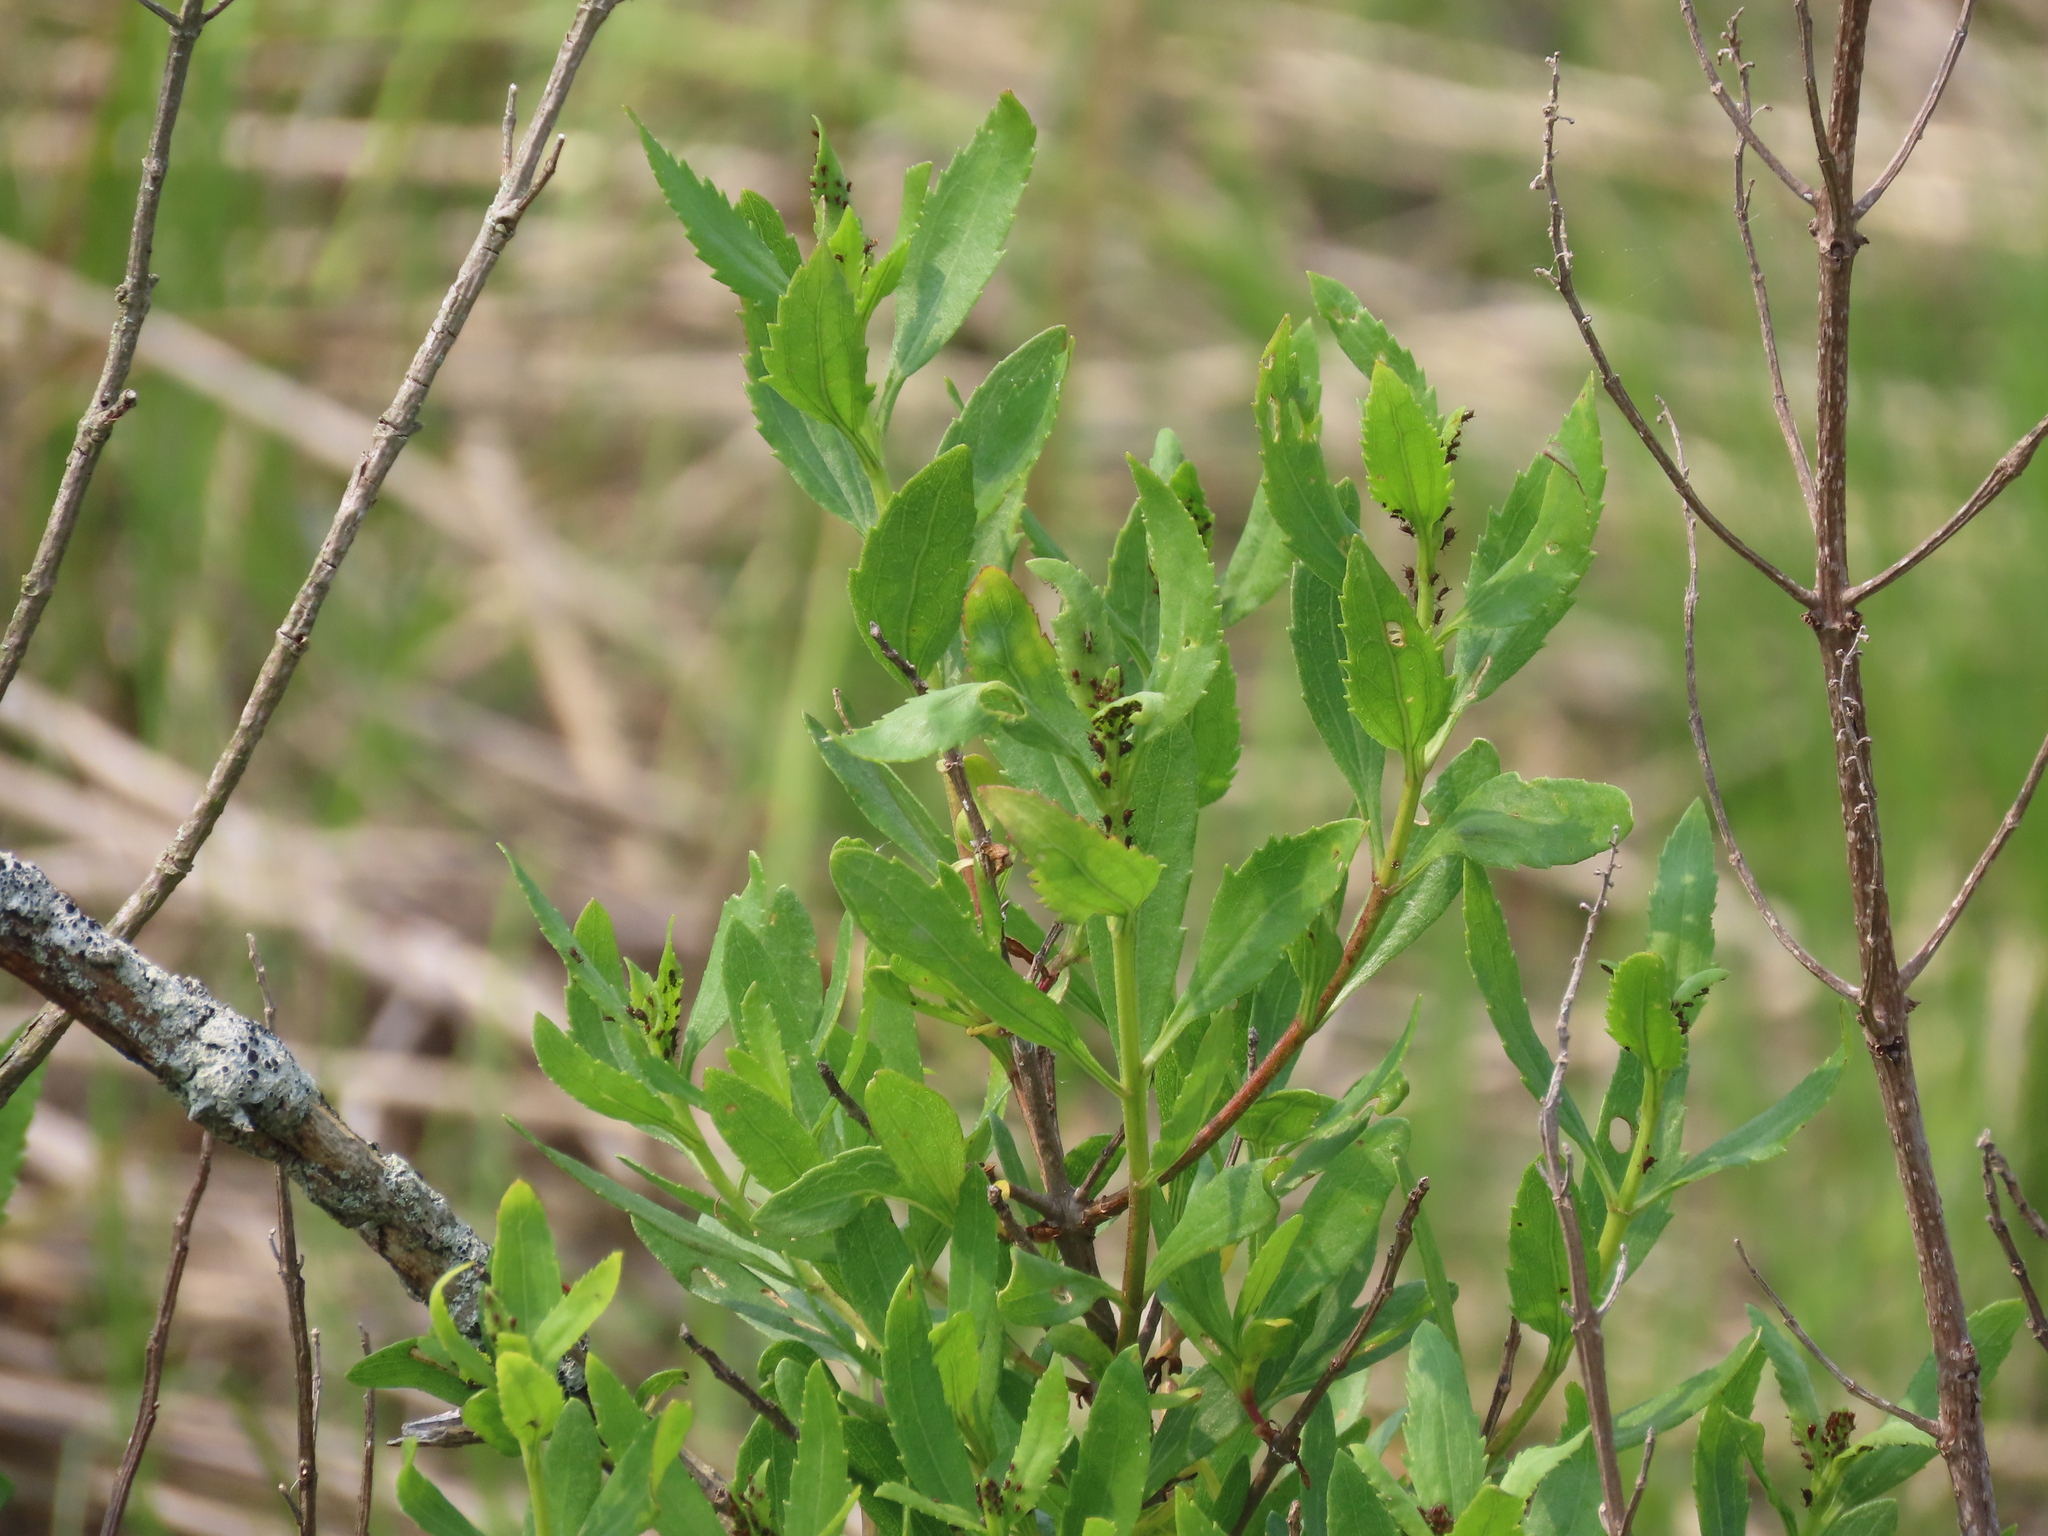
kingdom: Plantae
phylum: Tracheophyta
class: Magnoliopsida
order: Asterales
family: Asteraceae
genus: Iva
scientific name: Iva frutescens
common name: Big-leaved marsh-elder
